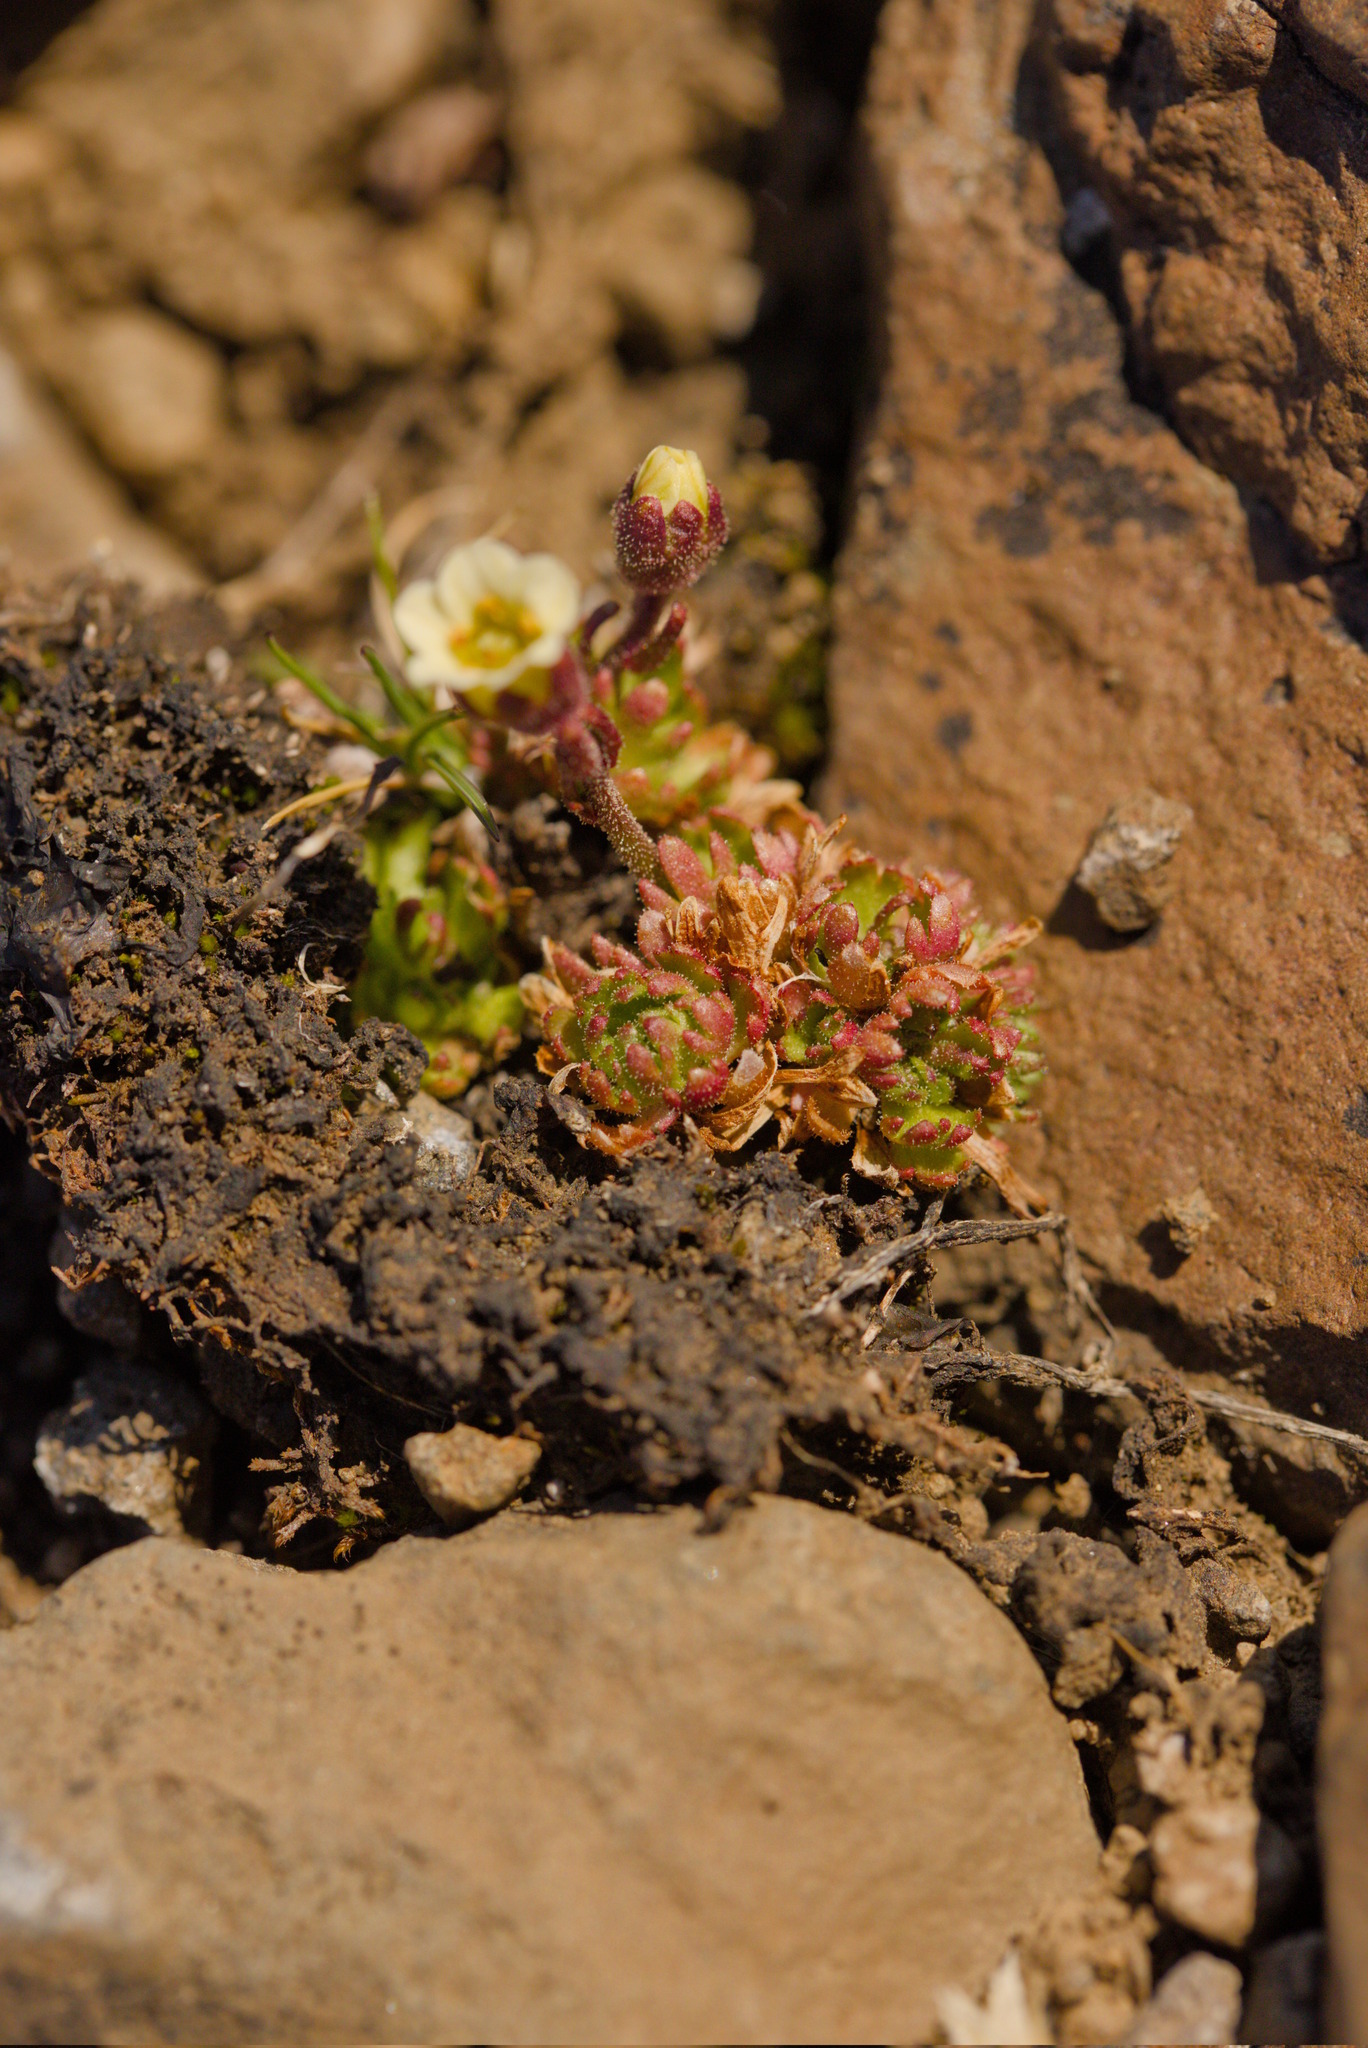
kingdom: Plantae
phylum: Tracheophyta
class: Magnoliopsida
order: Saxifragales
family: Saxifragaceae
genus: Saxifraga
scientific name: Saxifraga cespitosa
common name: Tufted saxifrage
